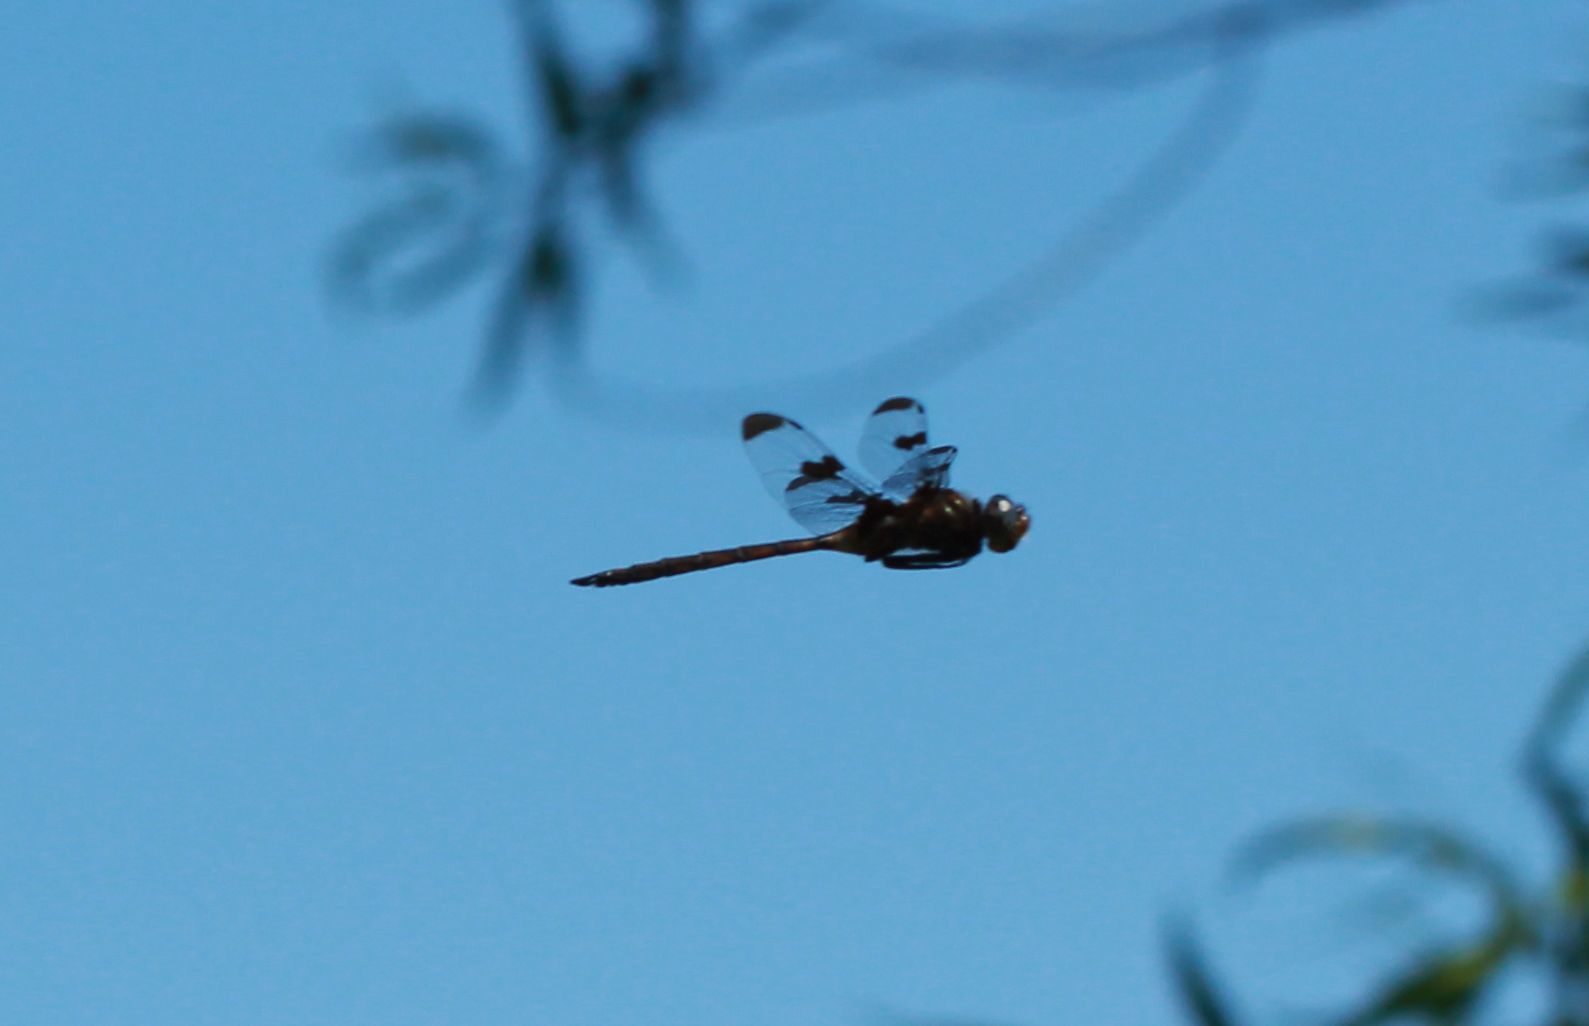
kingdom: Animalia
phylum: Arthropoda
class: Insecta
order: Odonata
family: Corduliidae
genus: Epitheca
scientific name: Epitheca princeps
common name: Prince baskettail
